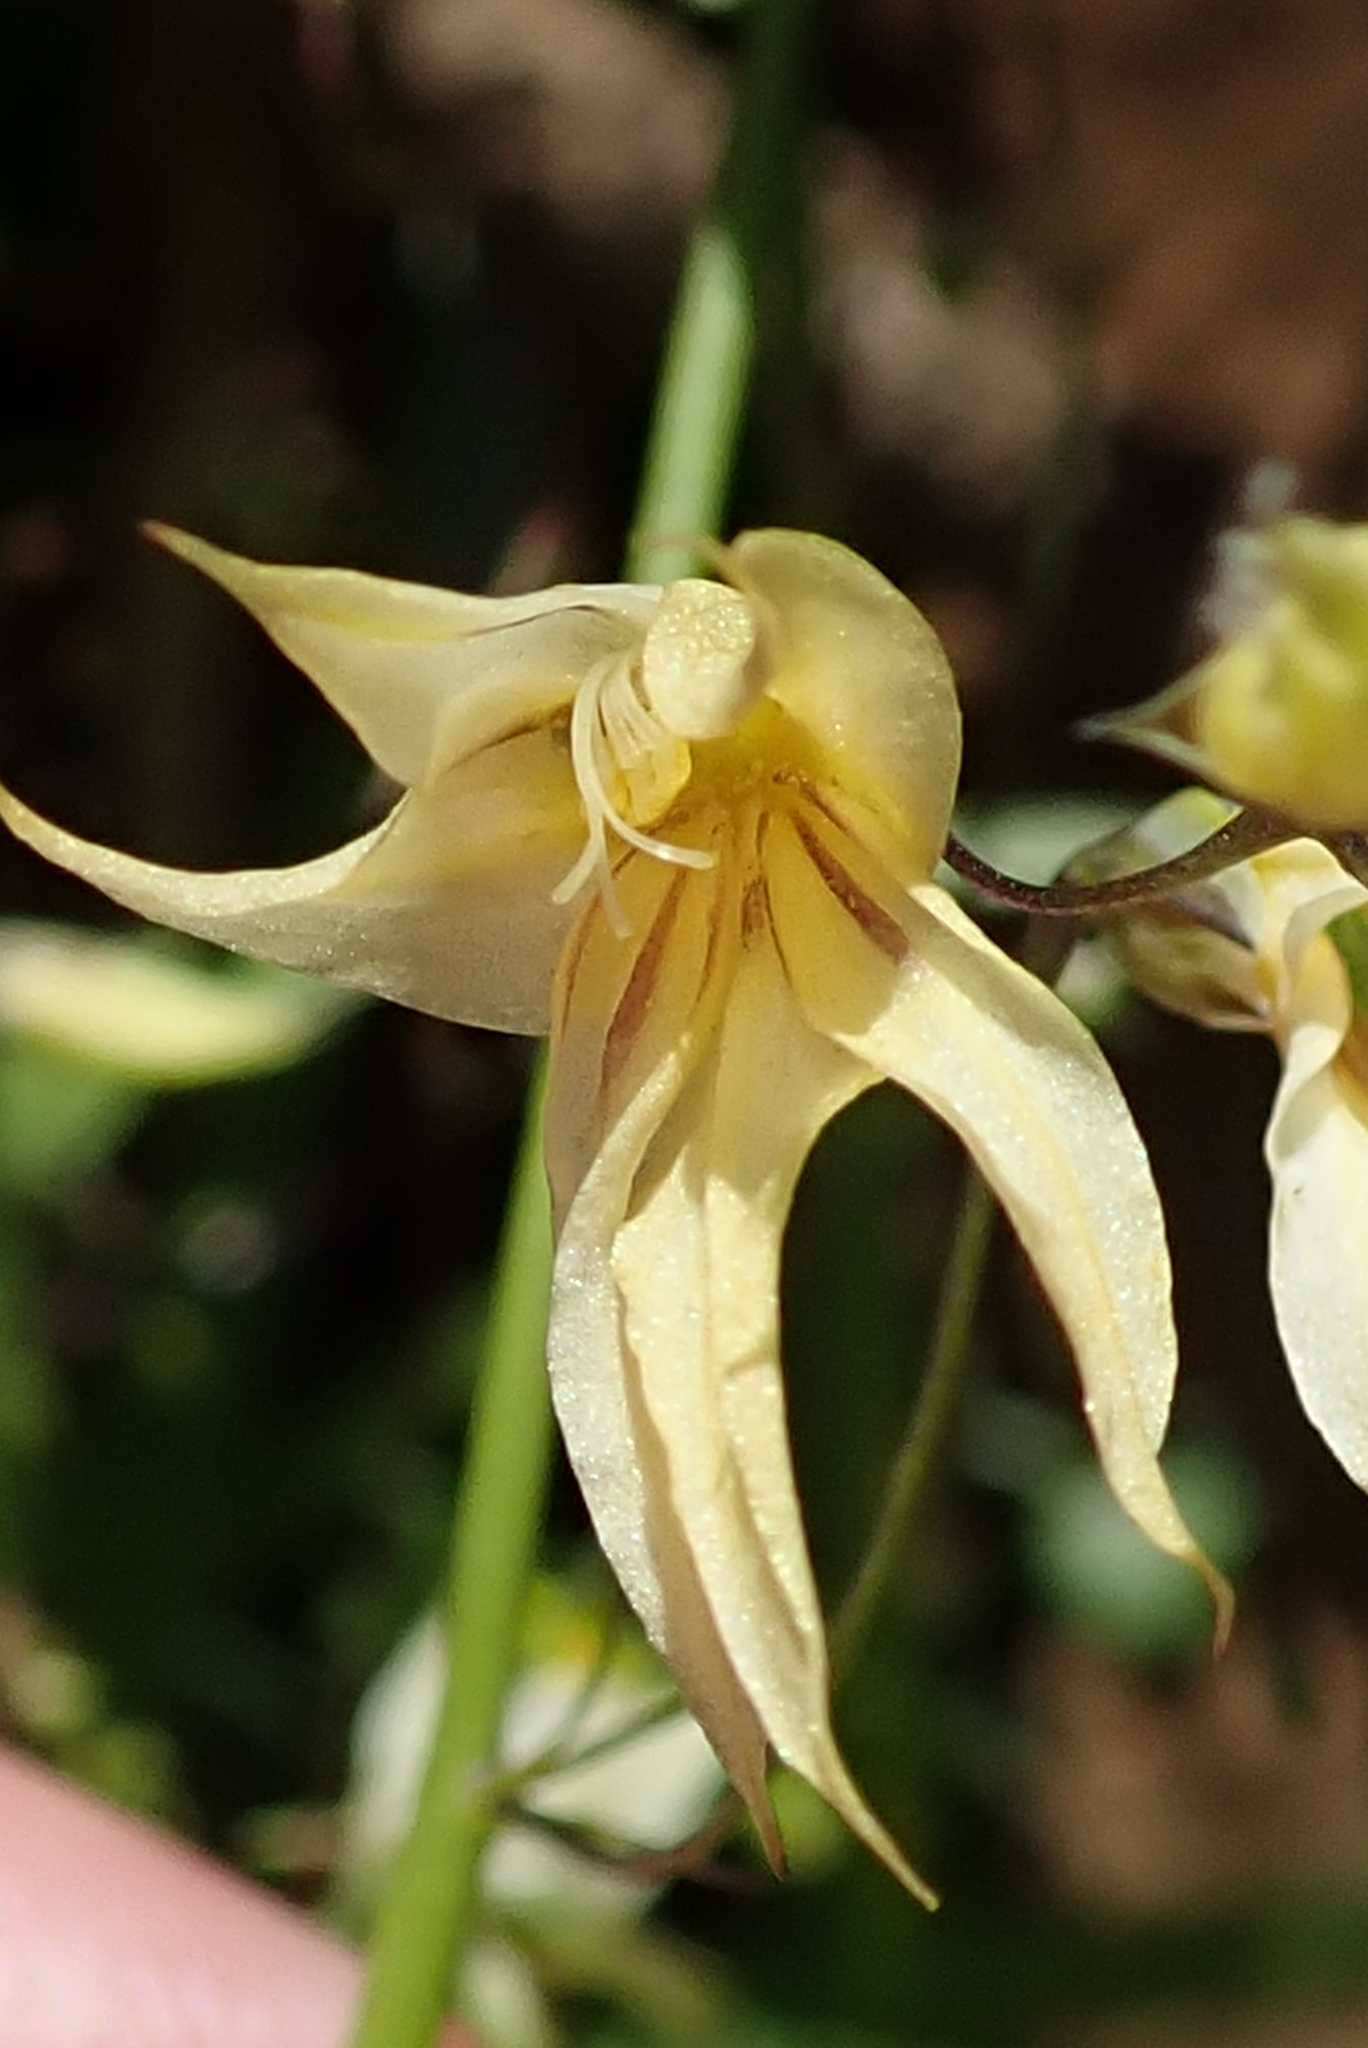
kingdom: Plantae
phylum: Tracheophyta
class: Liliopsida
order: Asparagales
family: Iridaceae
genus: Melasphaerula
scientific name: Melasphaerula graminea
